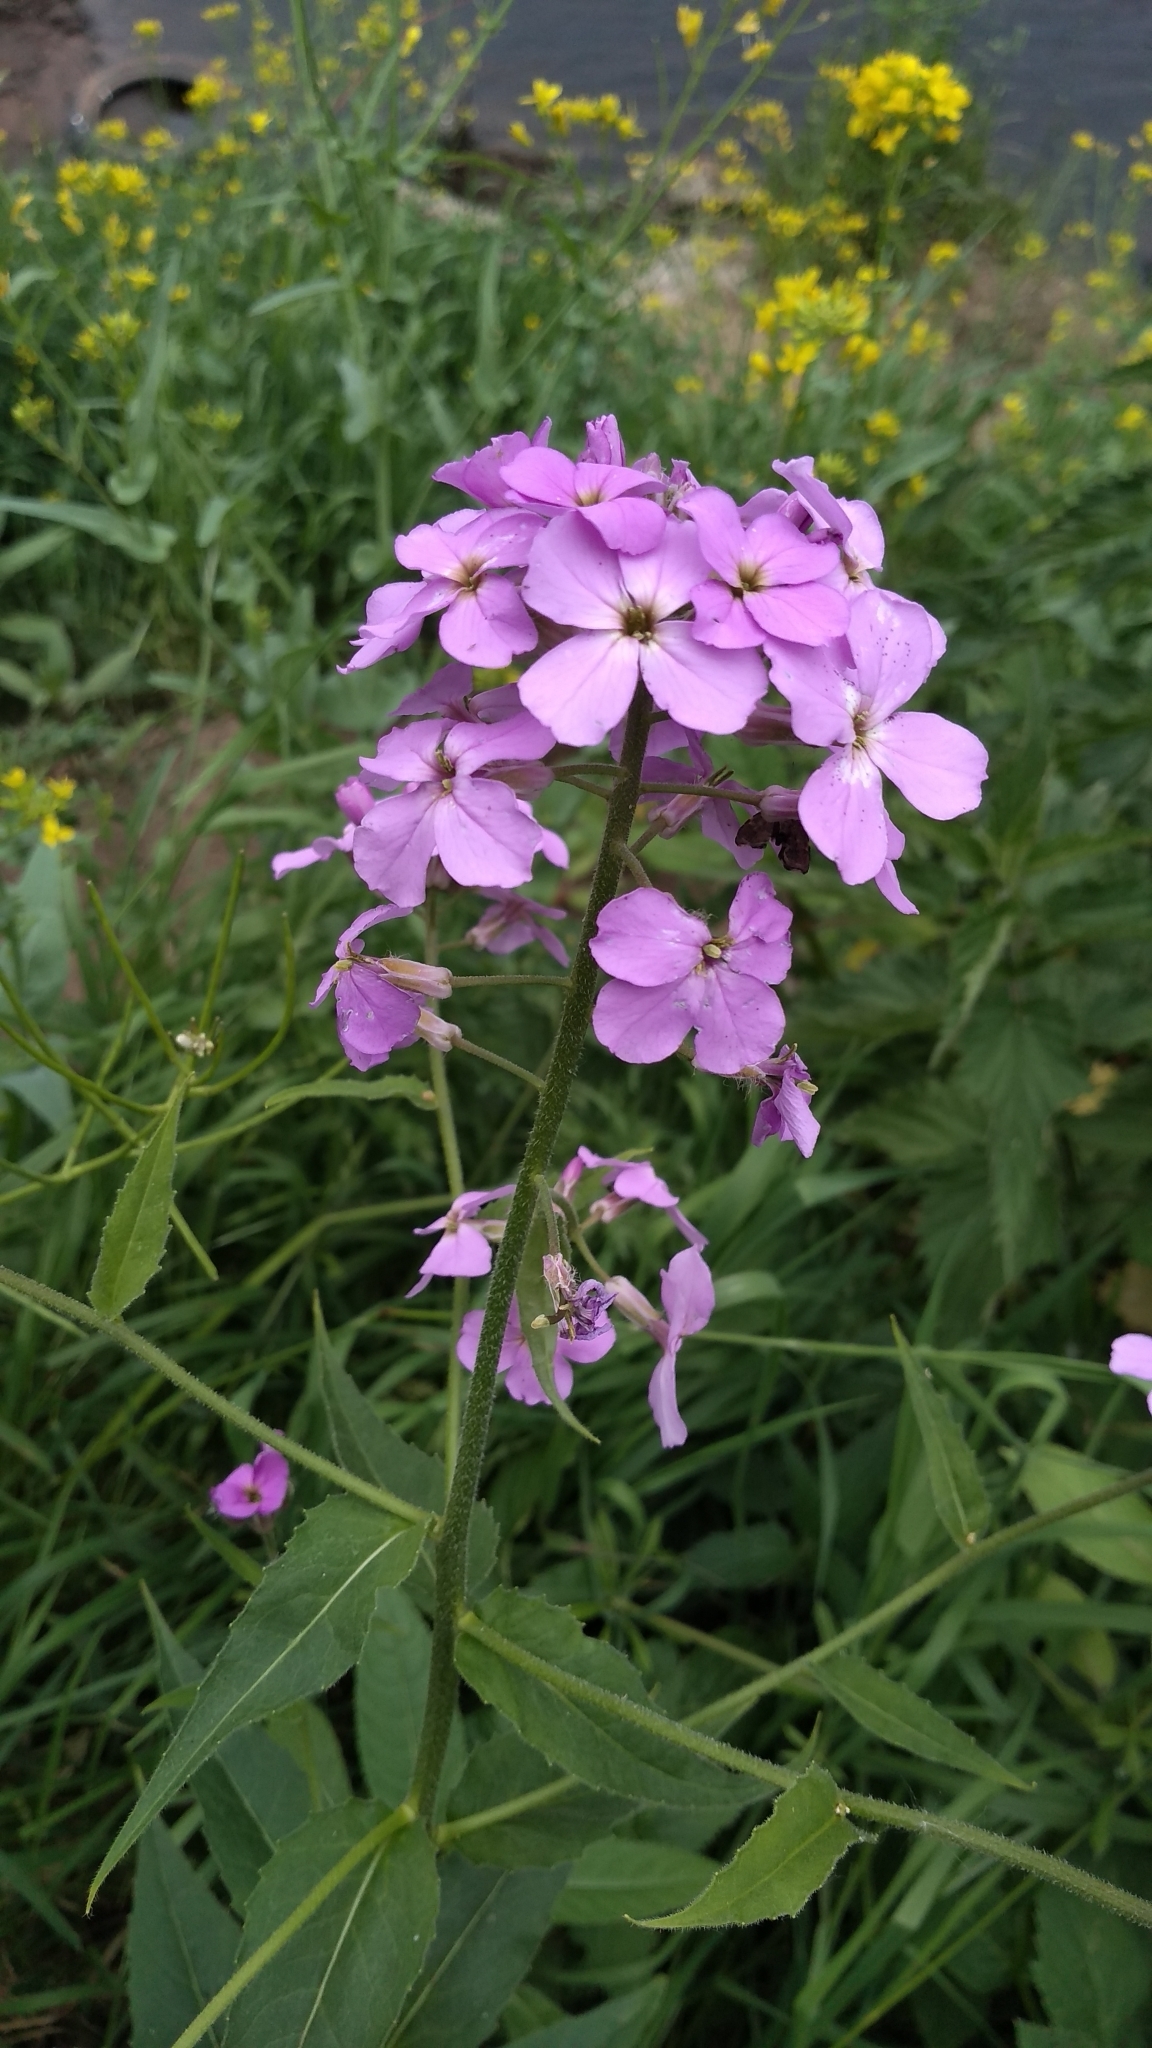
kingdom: Plantae
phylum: Tracheophyta
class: Magnoliopsida
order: Brassicales
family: Brassicaceae
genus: Hesperis
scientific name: Hesperis matronalis
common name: Dame's-violet
